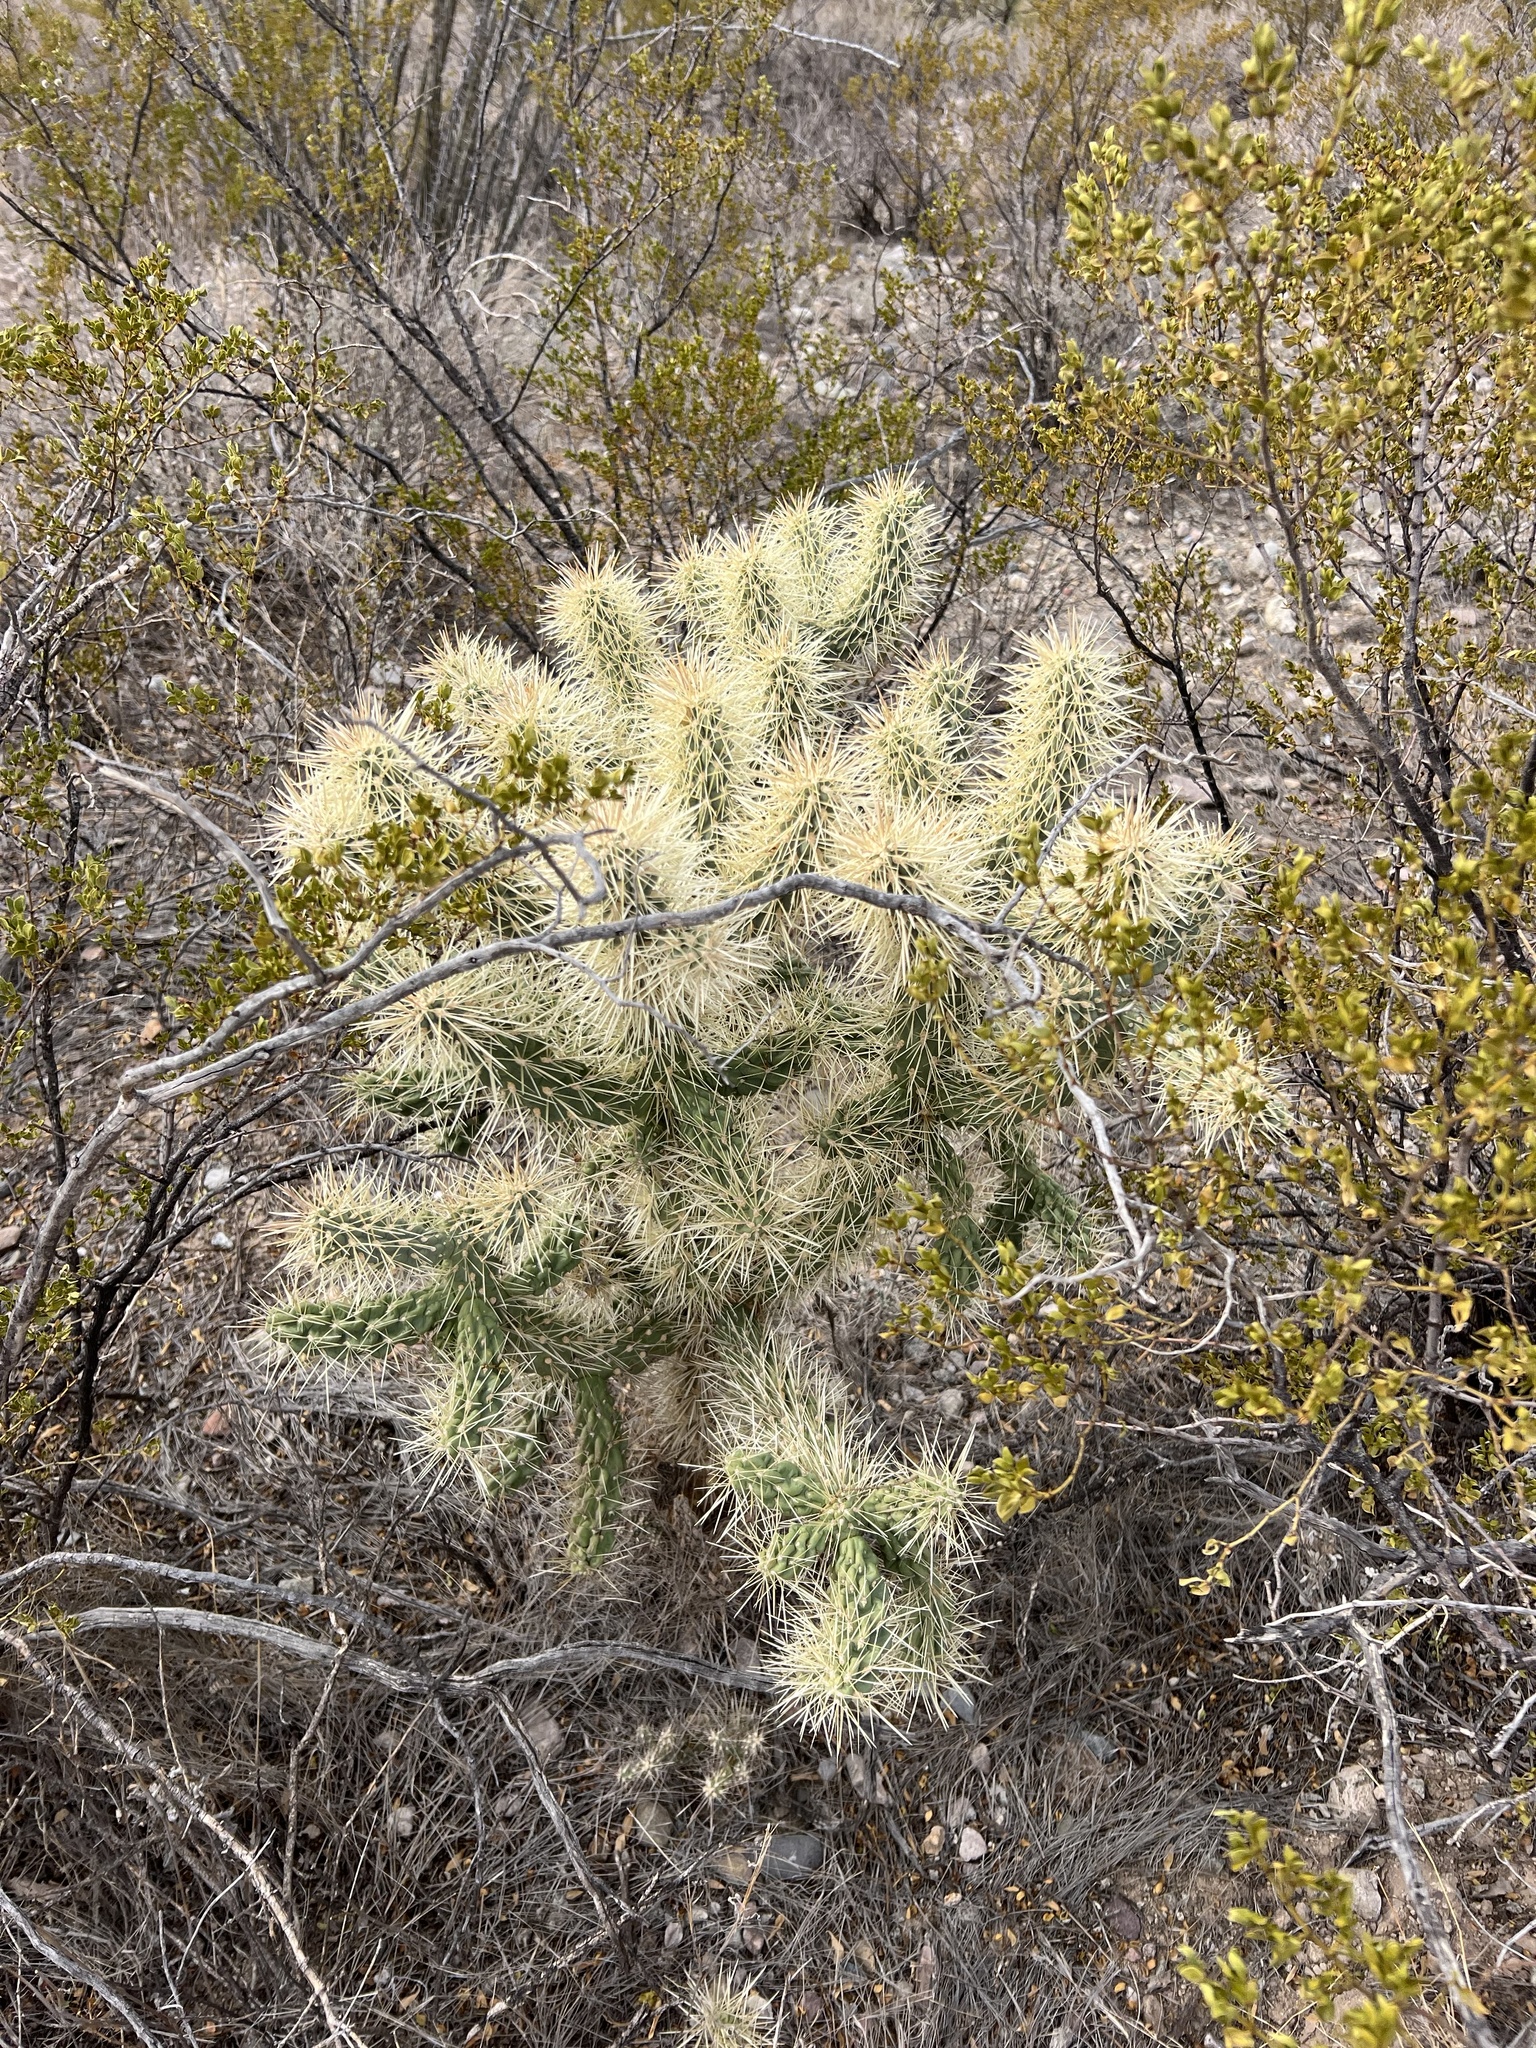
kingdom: Plantae
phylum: Tracheophyta
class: Magnoliopsida
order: Caryophyllales
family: Cactaceae
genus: Cylindropuntia
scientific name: Cylindropuntia fulgida
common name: Jumping cholla
